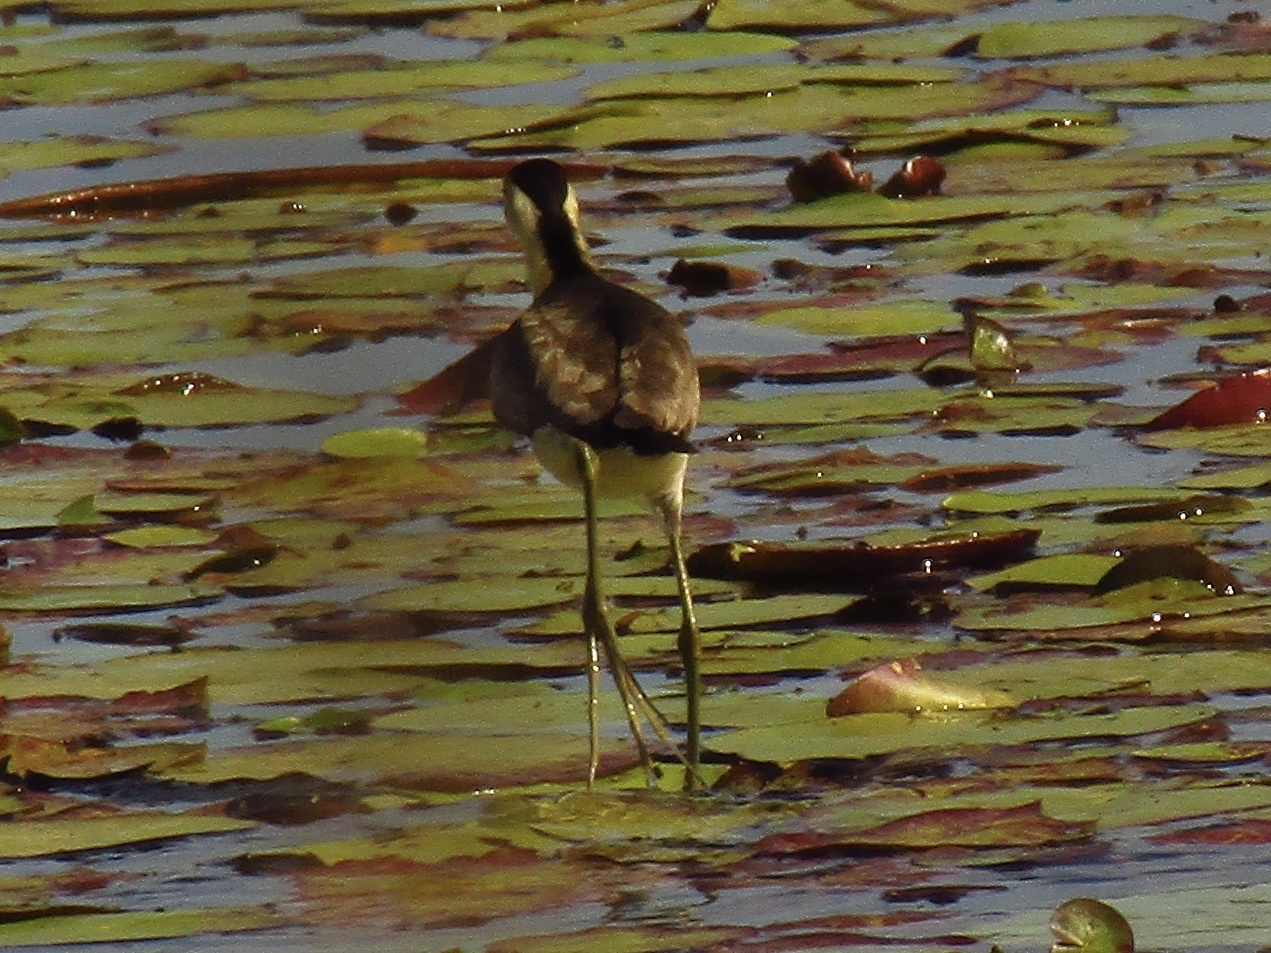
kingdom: Animalia
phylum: Chordata
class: Aves
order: Charadriiformes
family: Jacanidae
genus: Irediparra
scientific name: Irediparra gallinacea
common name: Comb-crested jacana
